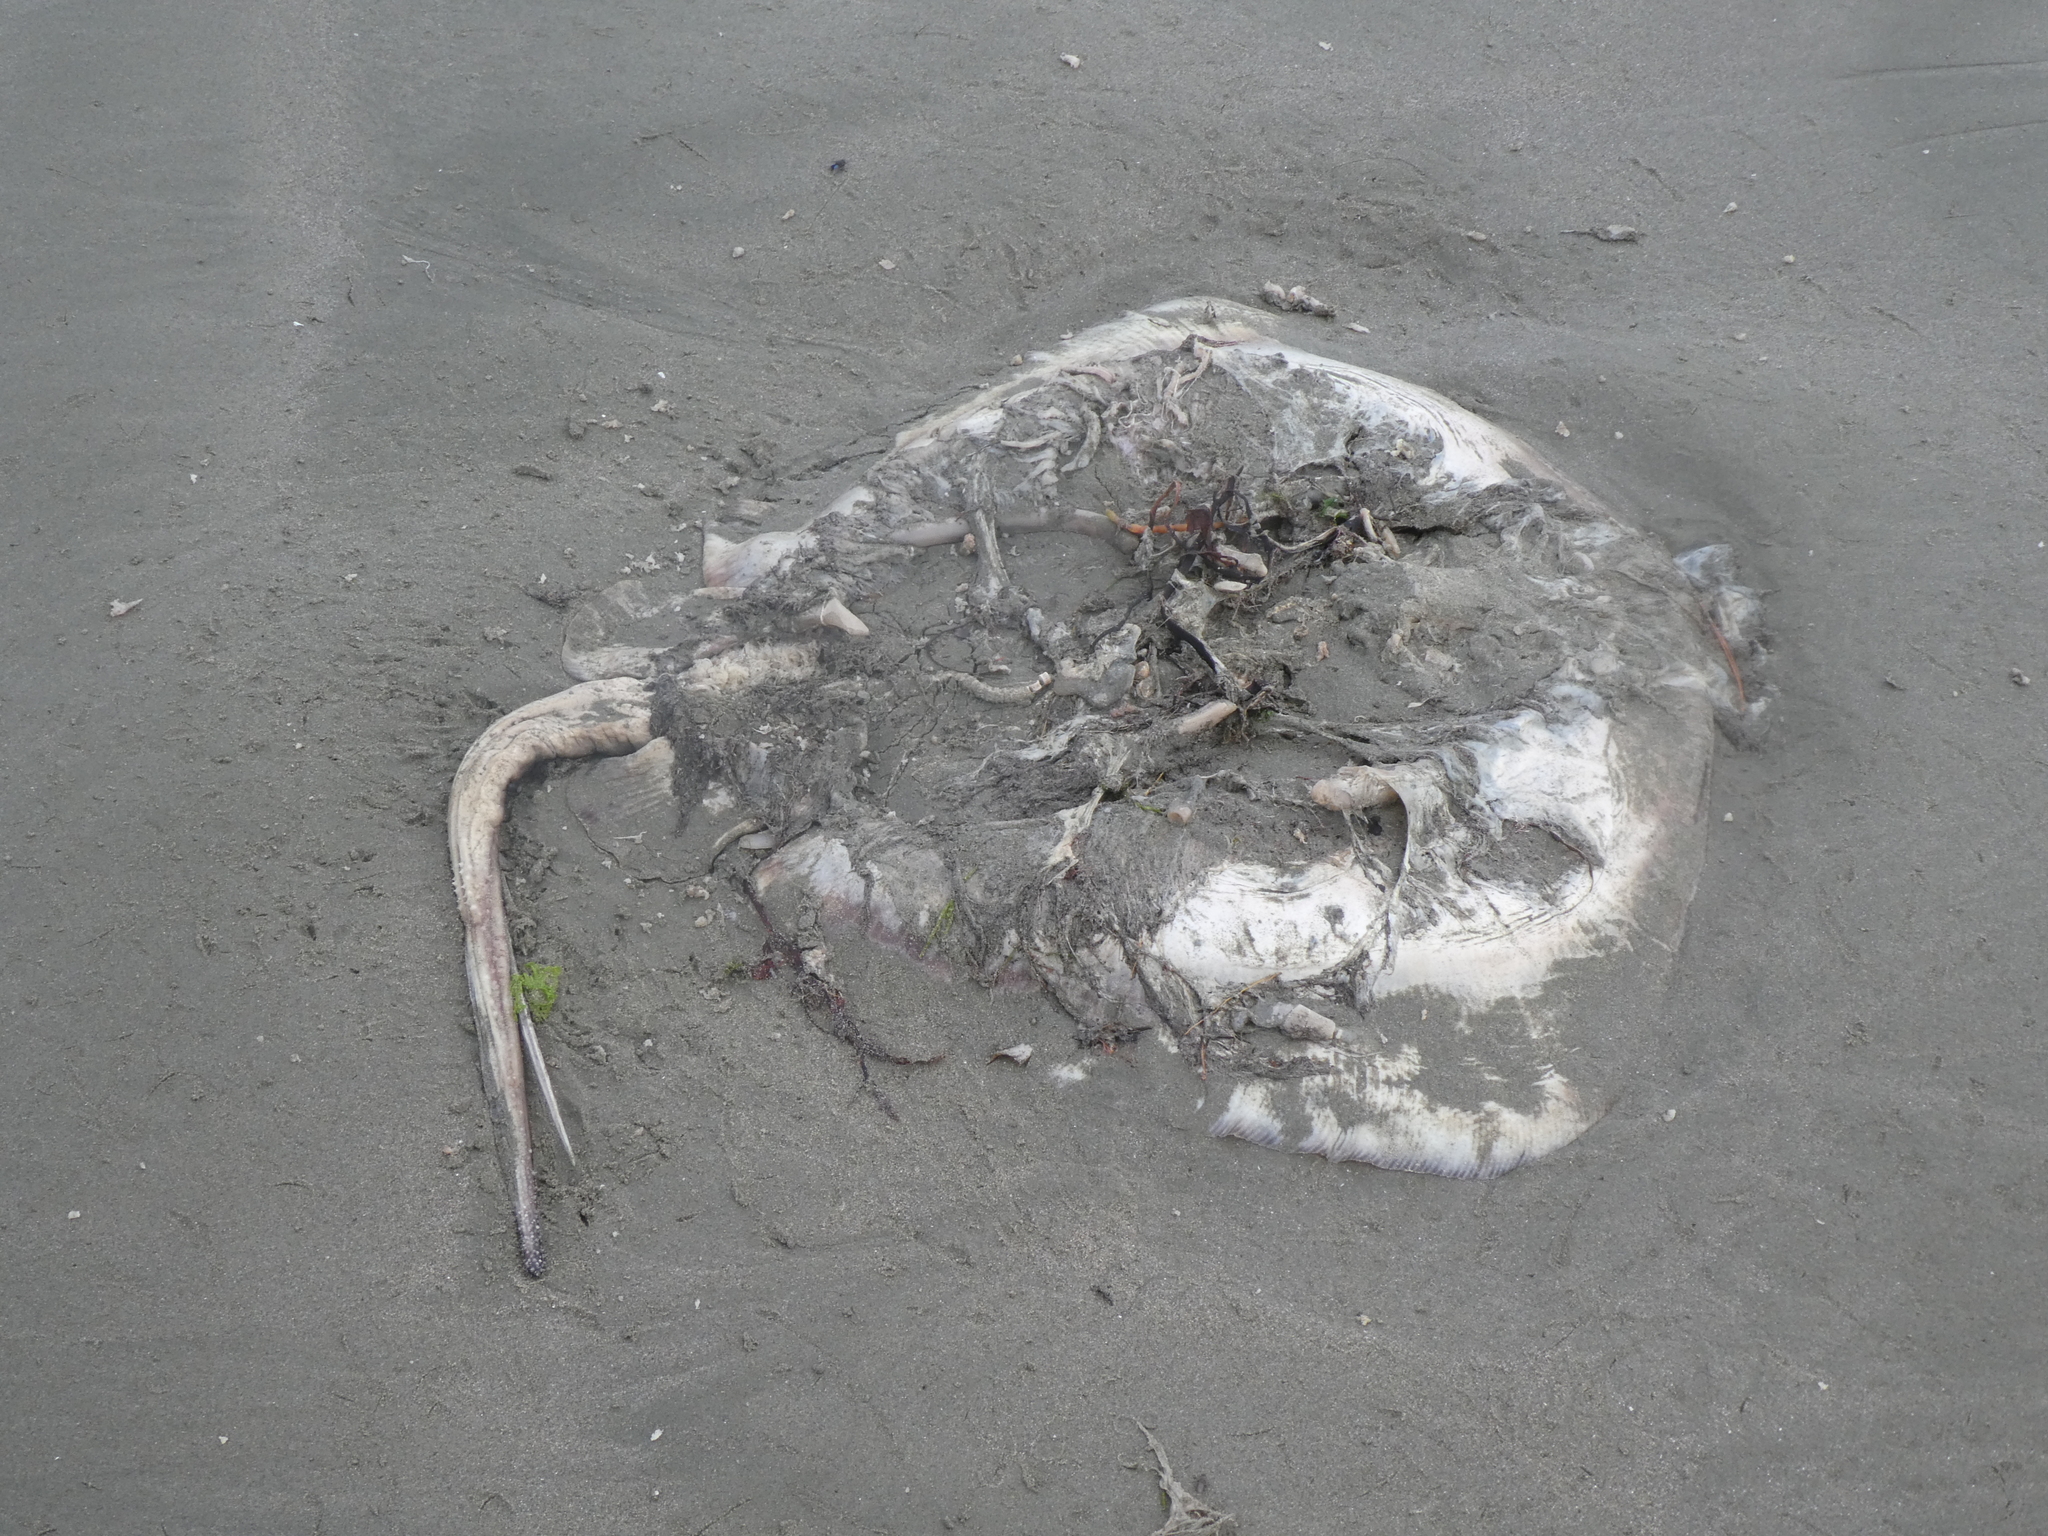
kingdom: Animalia
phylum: Chordata
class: Elasmobranchii
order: Myliobatiformes
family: Dasyatidae
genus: Bathytoshia
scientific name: Bathytoshia brevicaudata
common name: Short-tail stingray
